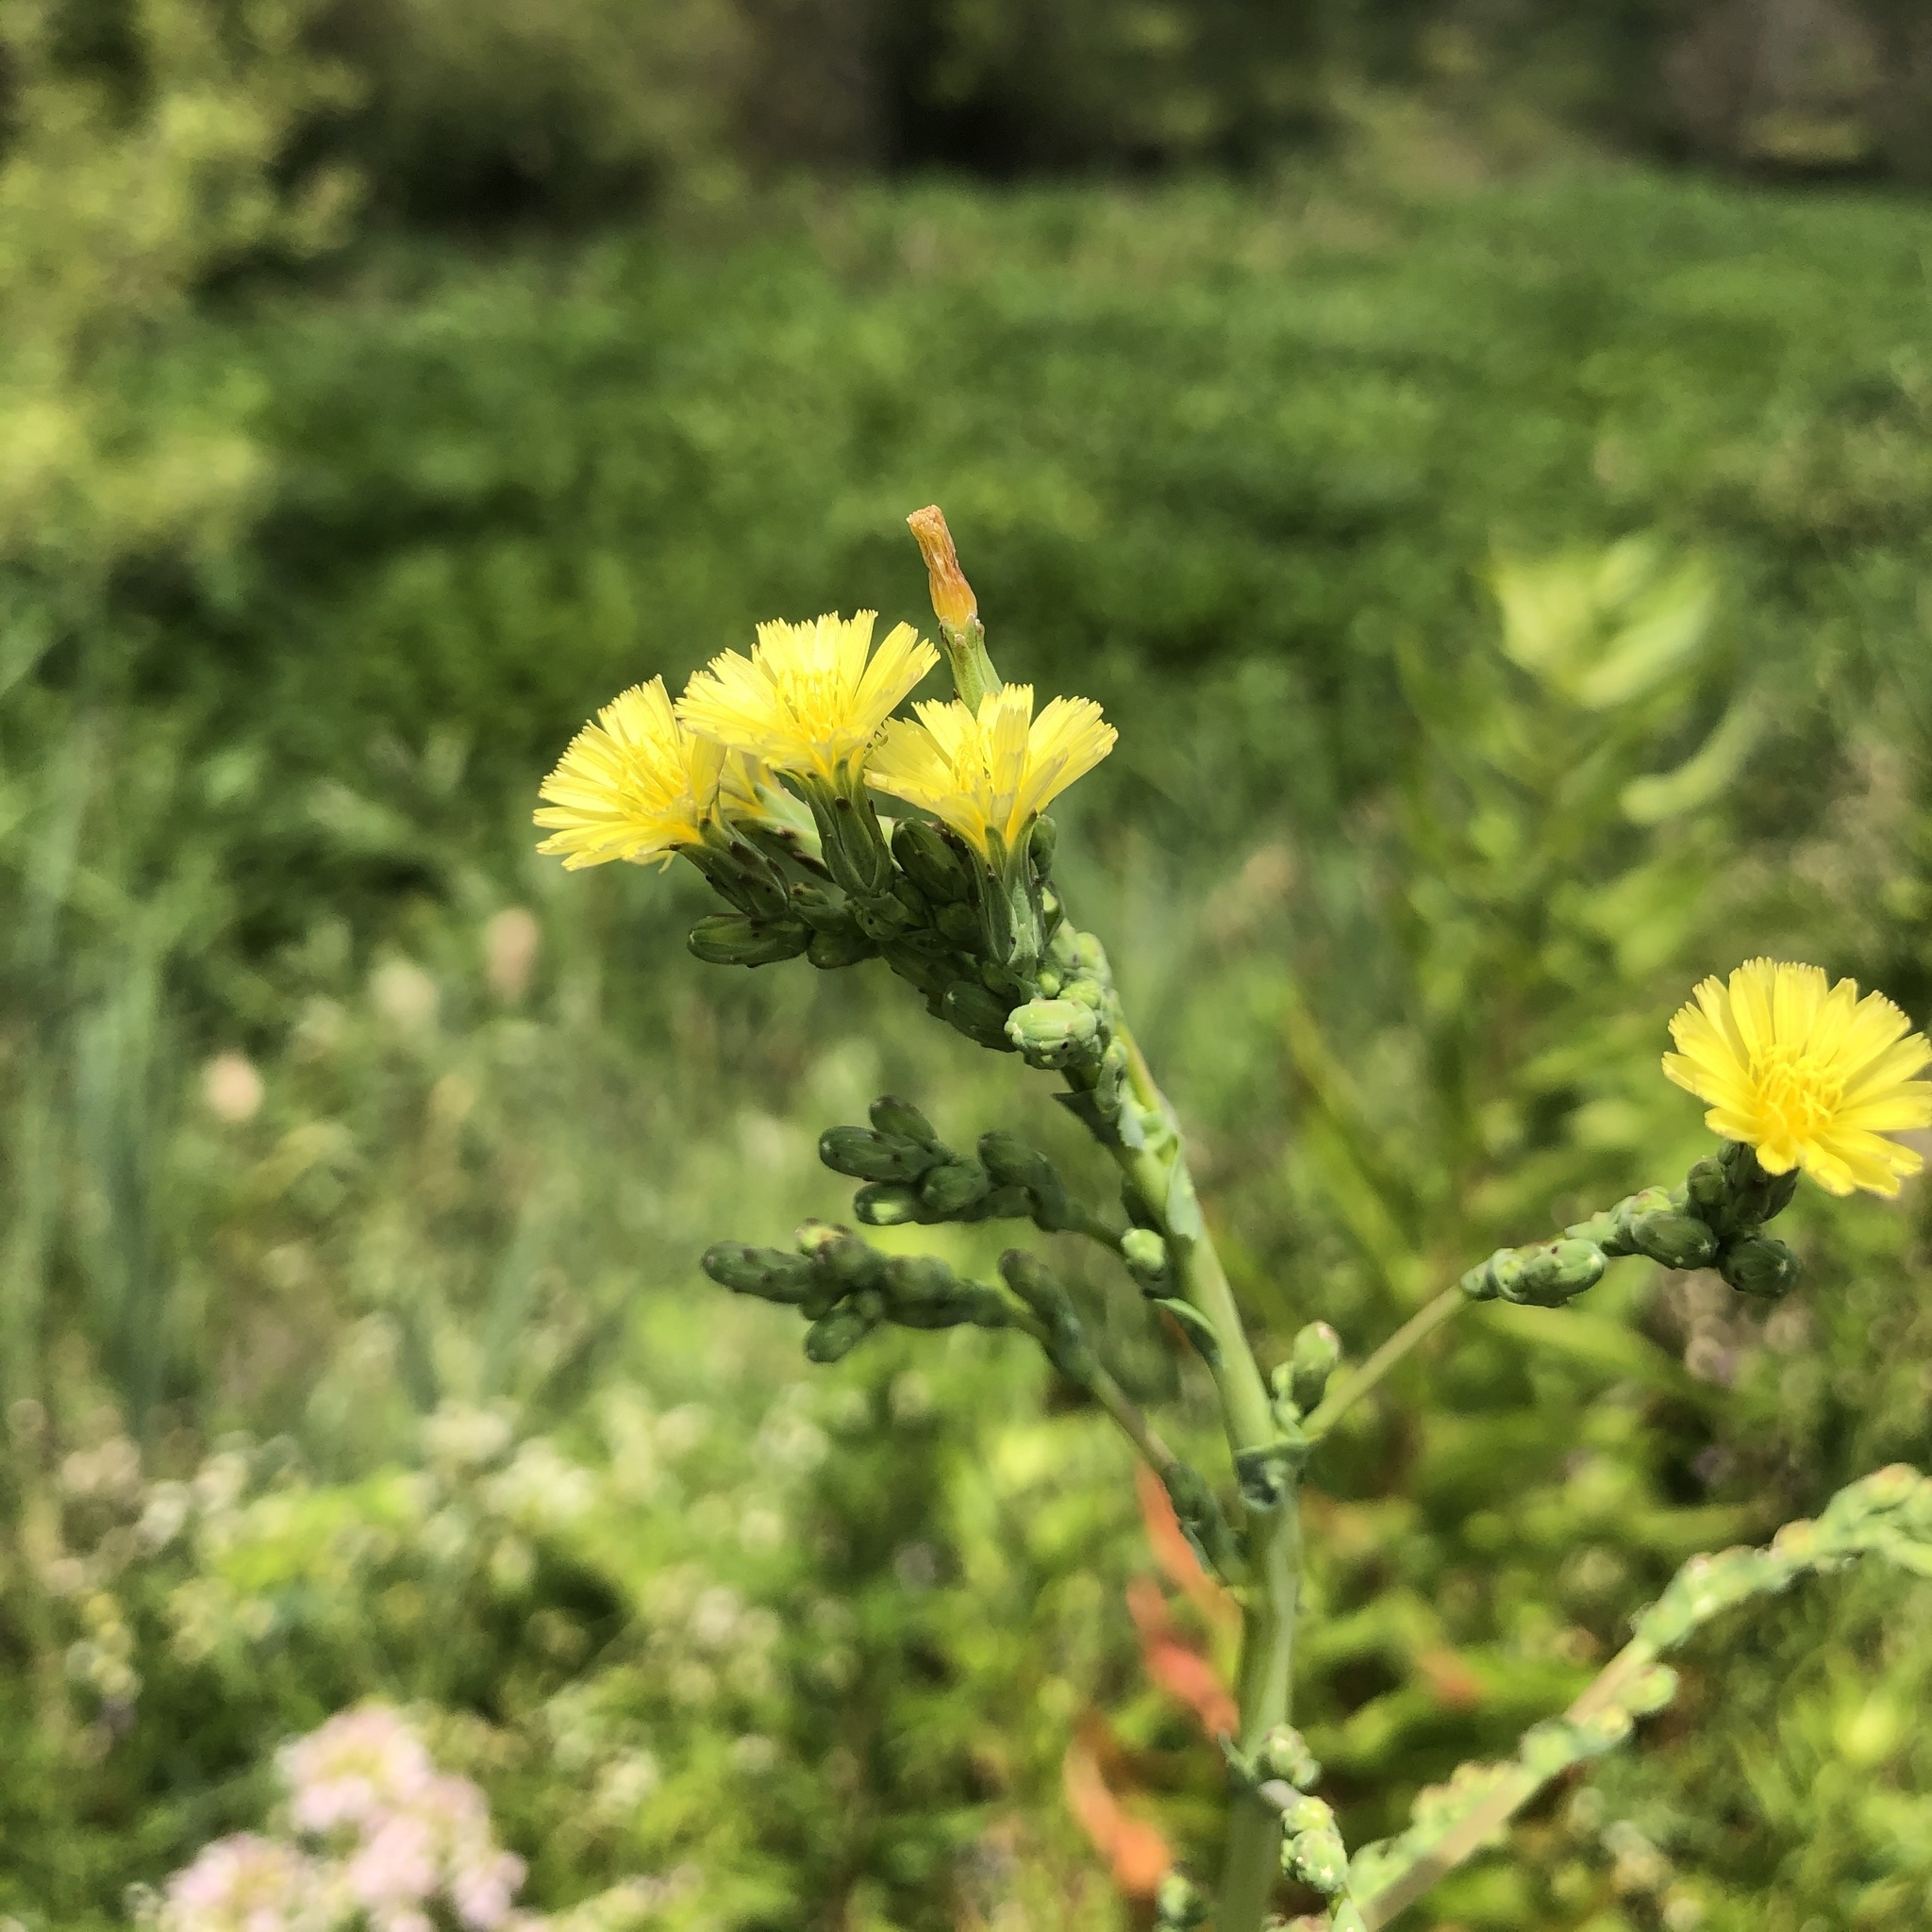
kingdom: Plantae
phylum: Tracheophyta
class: Magnoliopsida
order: Asterales
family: Asteraceae
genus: Lactuca
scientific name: Lactuca serriola
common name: Prickly lettuce
